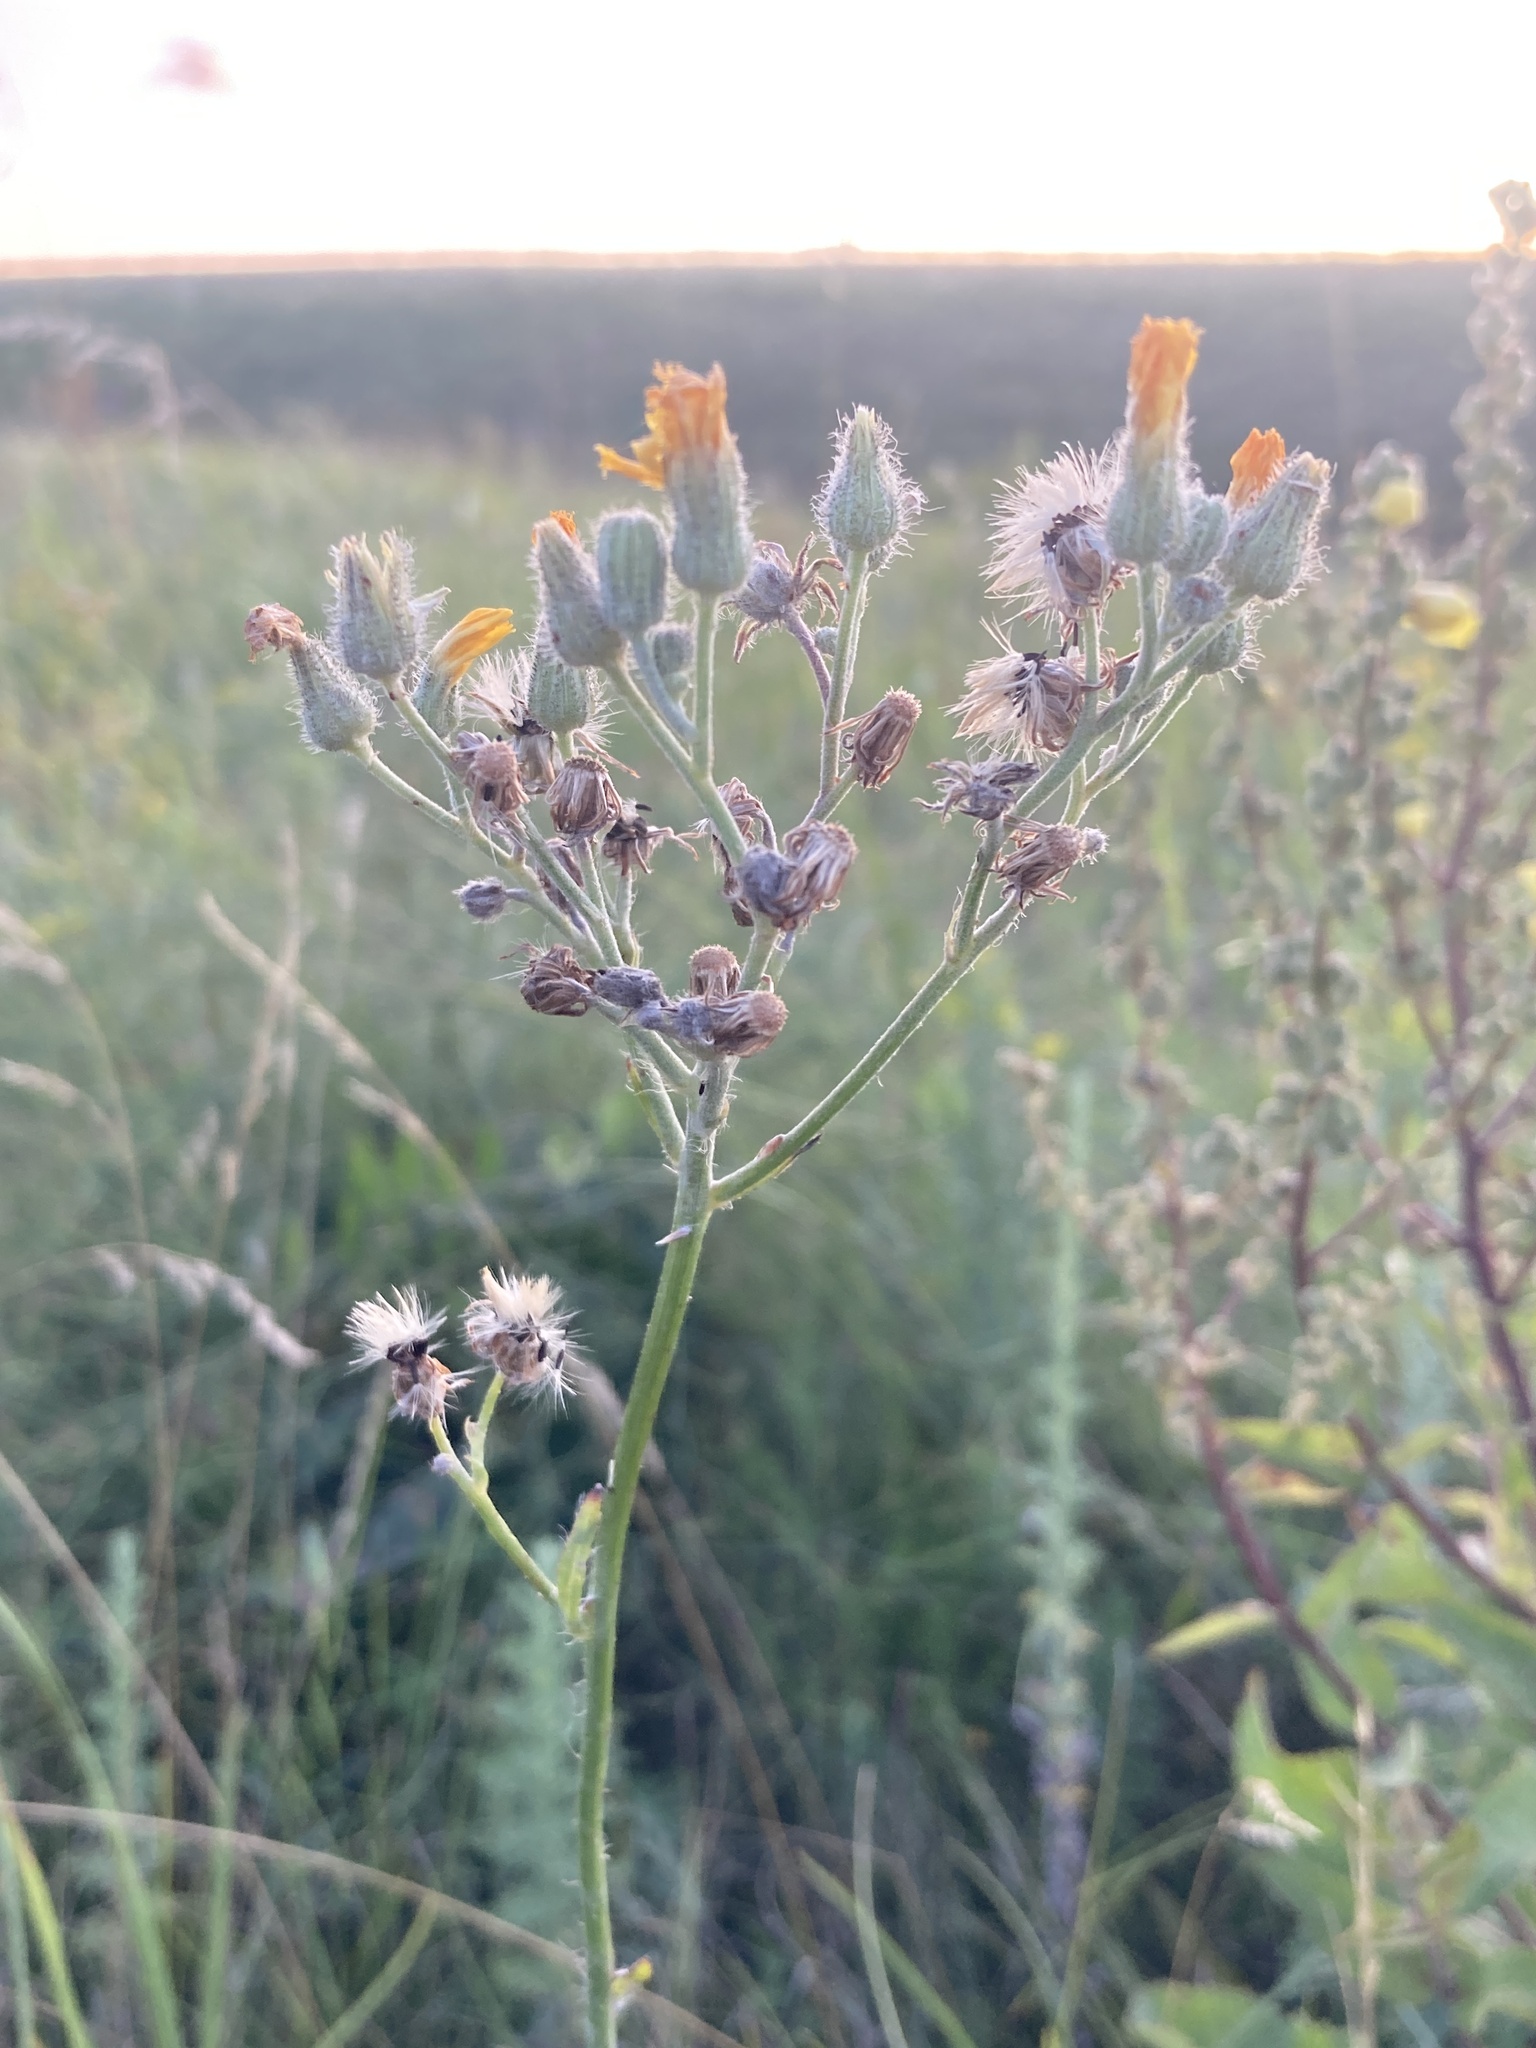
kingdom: Plantae
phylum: Tracheophyta
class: Magnoliopsida
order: Asterales
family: Asteraceae
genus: Pilosella
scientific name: Pilosella echioides
